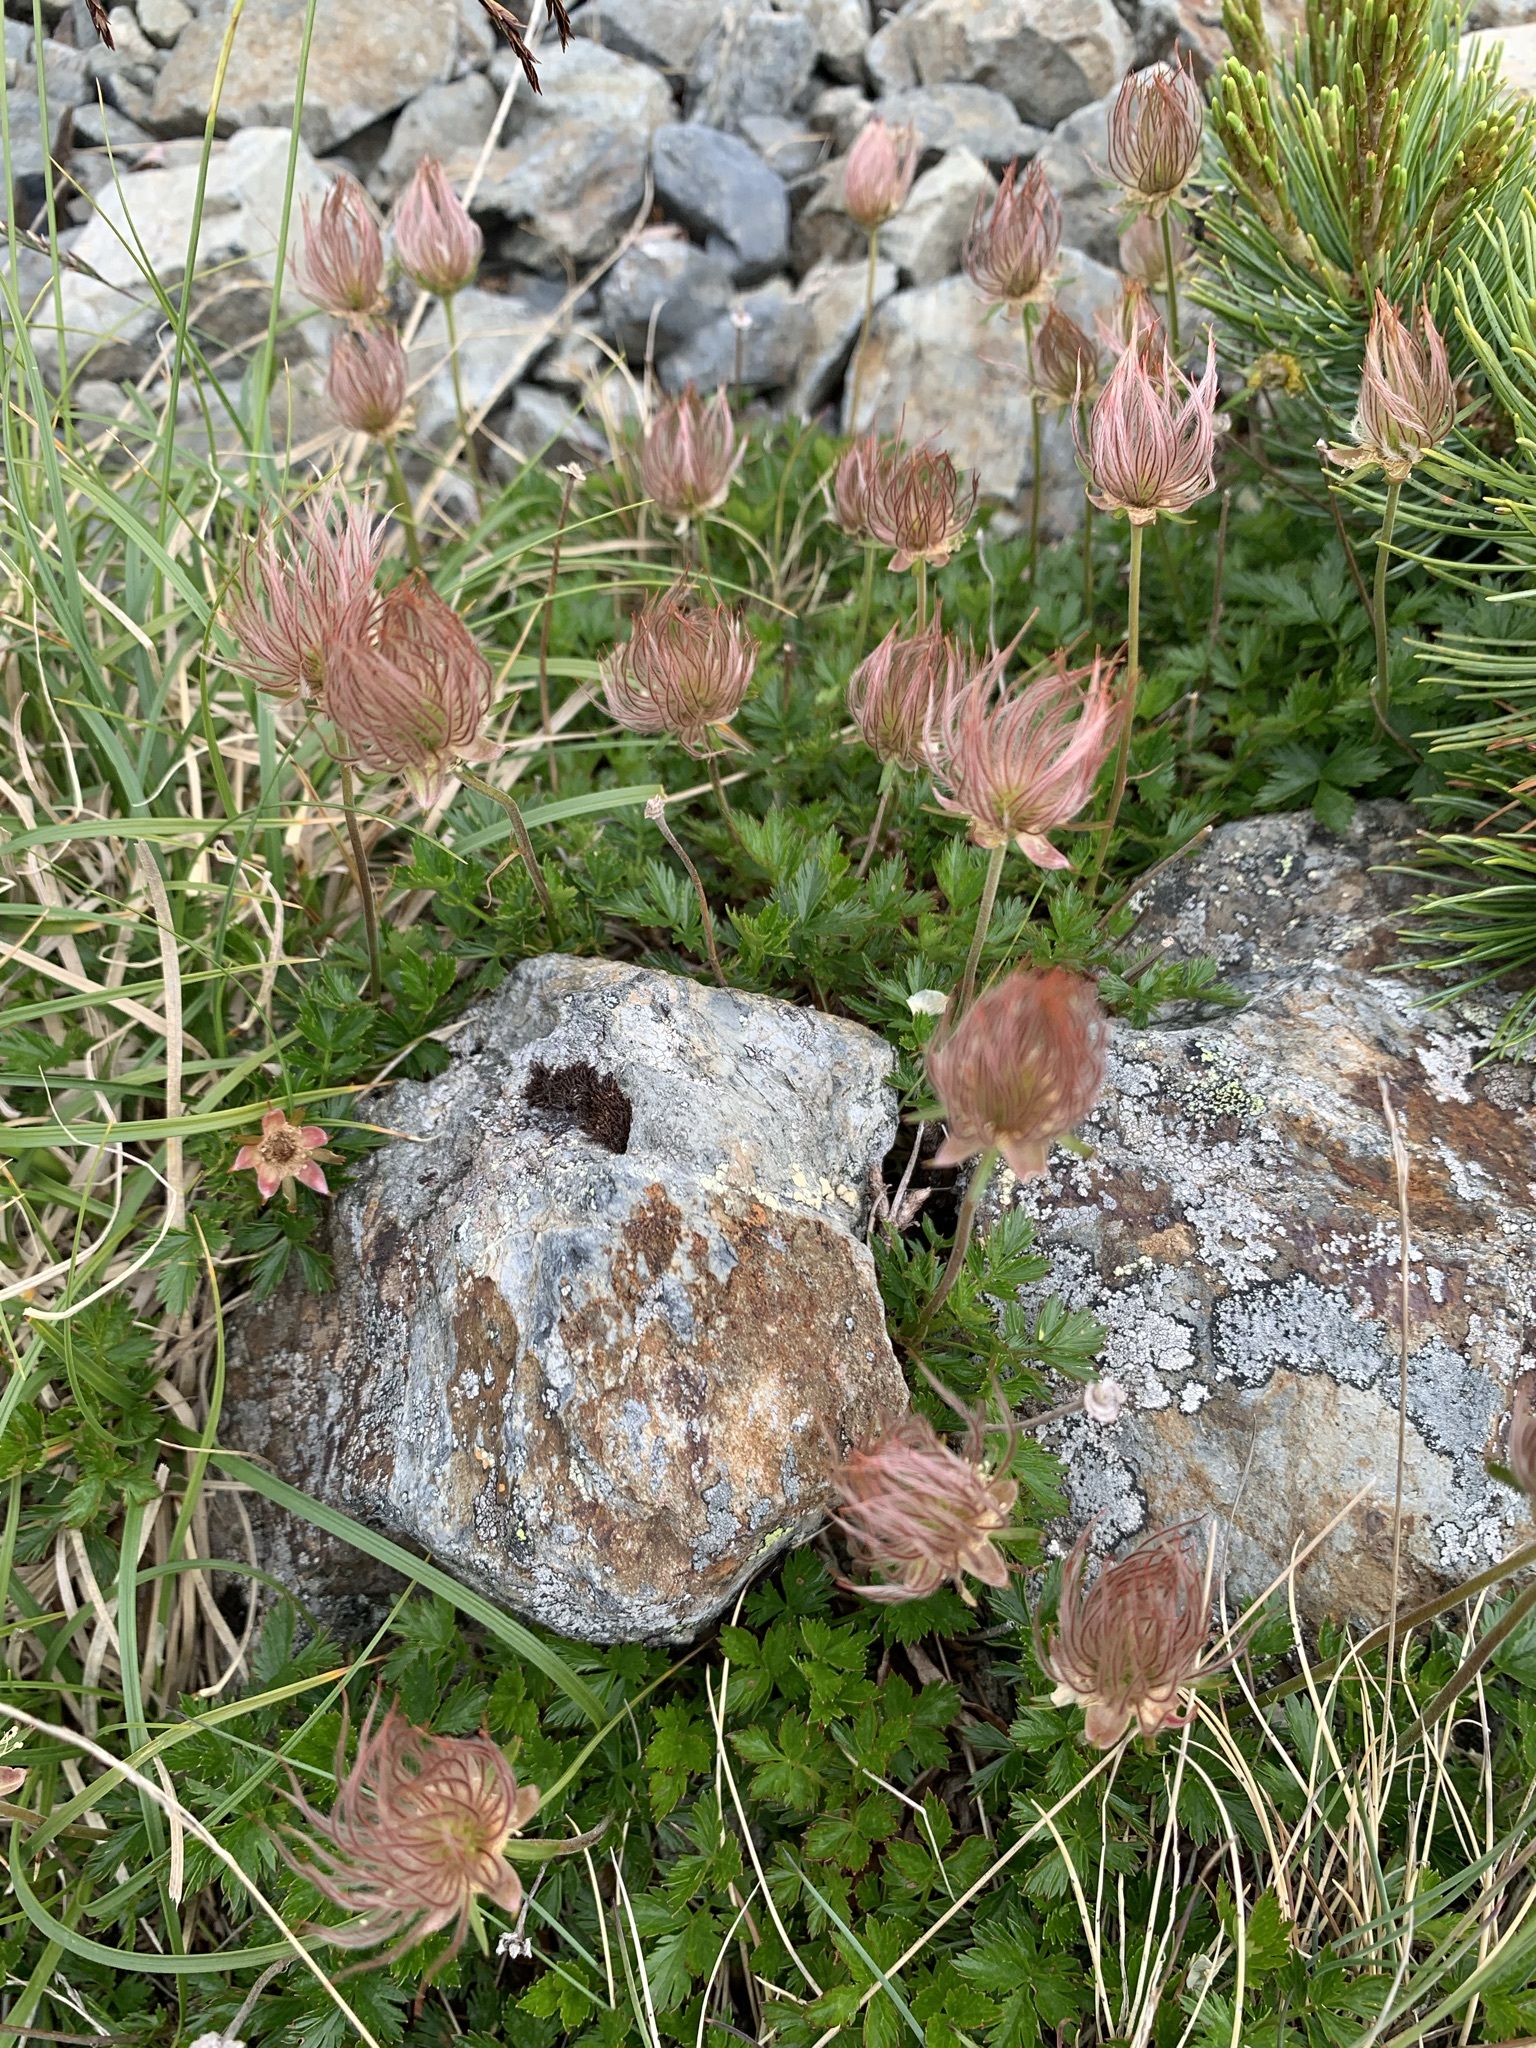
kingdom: Plantae
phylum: Tracheophyta
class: Magnoliopsida
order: Rosales
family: Rosaceae
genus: Geum
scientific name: Geum pentapetalum
